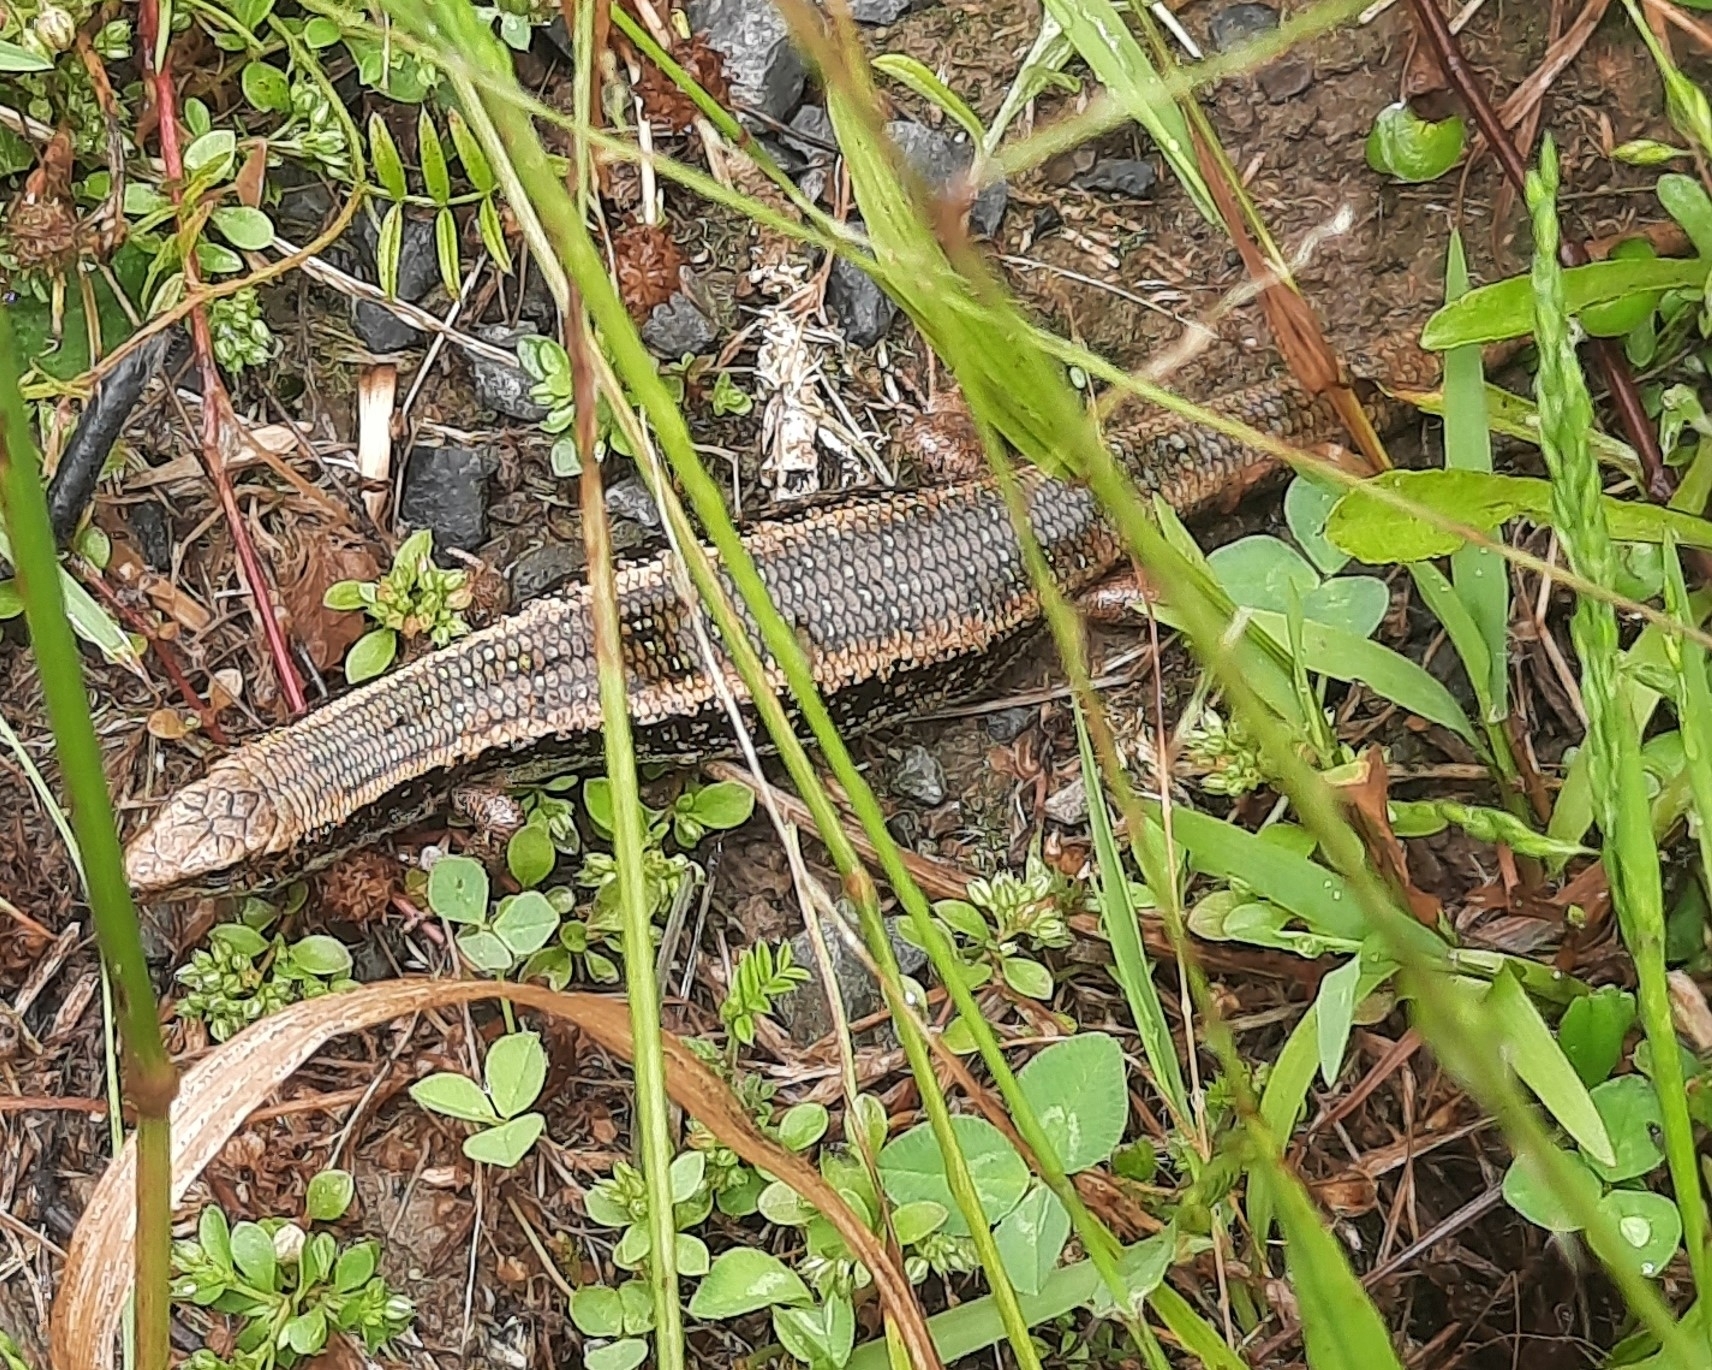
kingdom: Animalia
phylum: Chordata
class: Squamata
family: Scincidae
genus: Oligosoma
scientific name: Oligosoma kokowai
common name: Northern spotted skink
